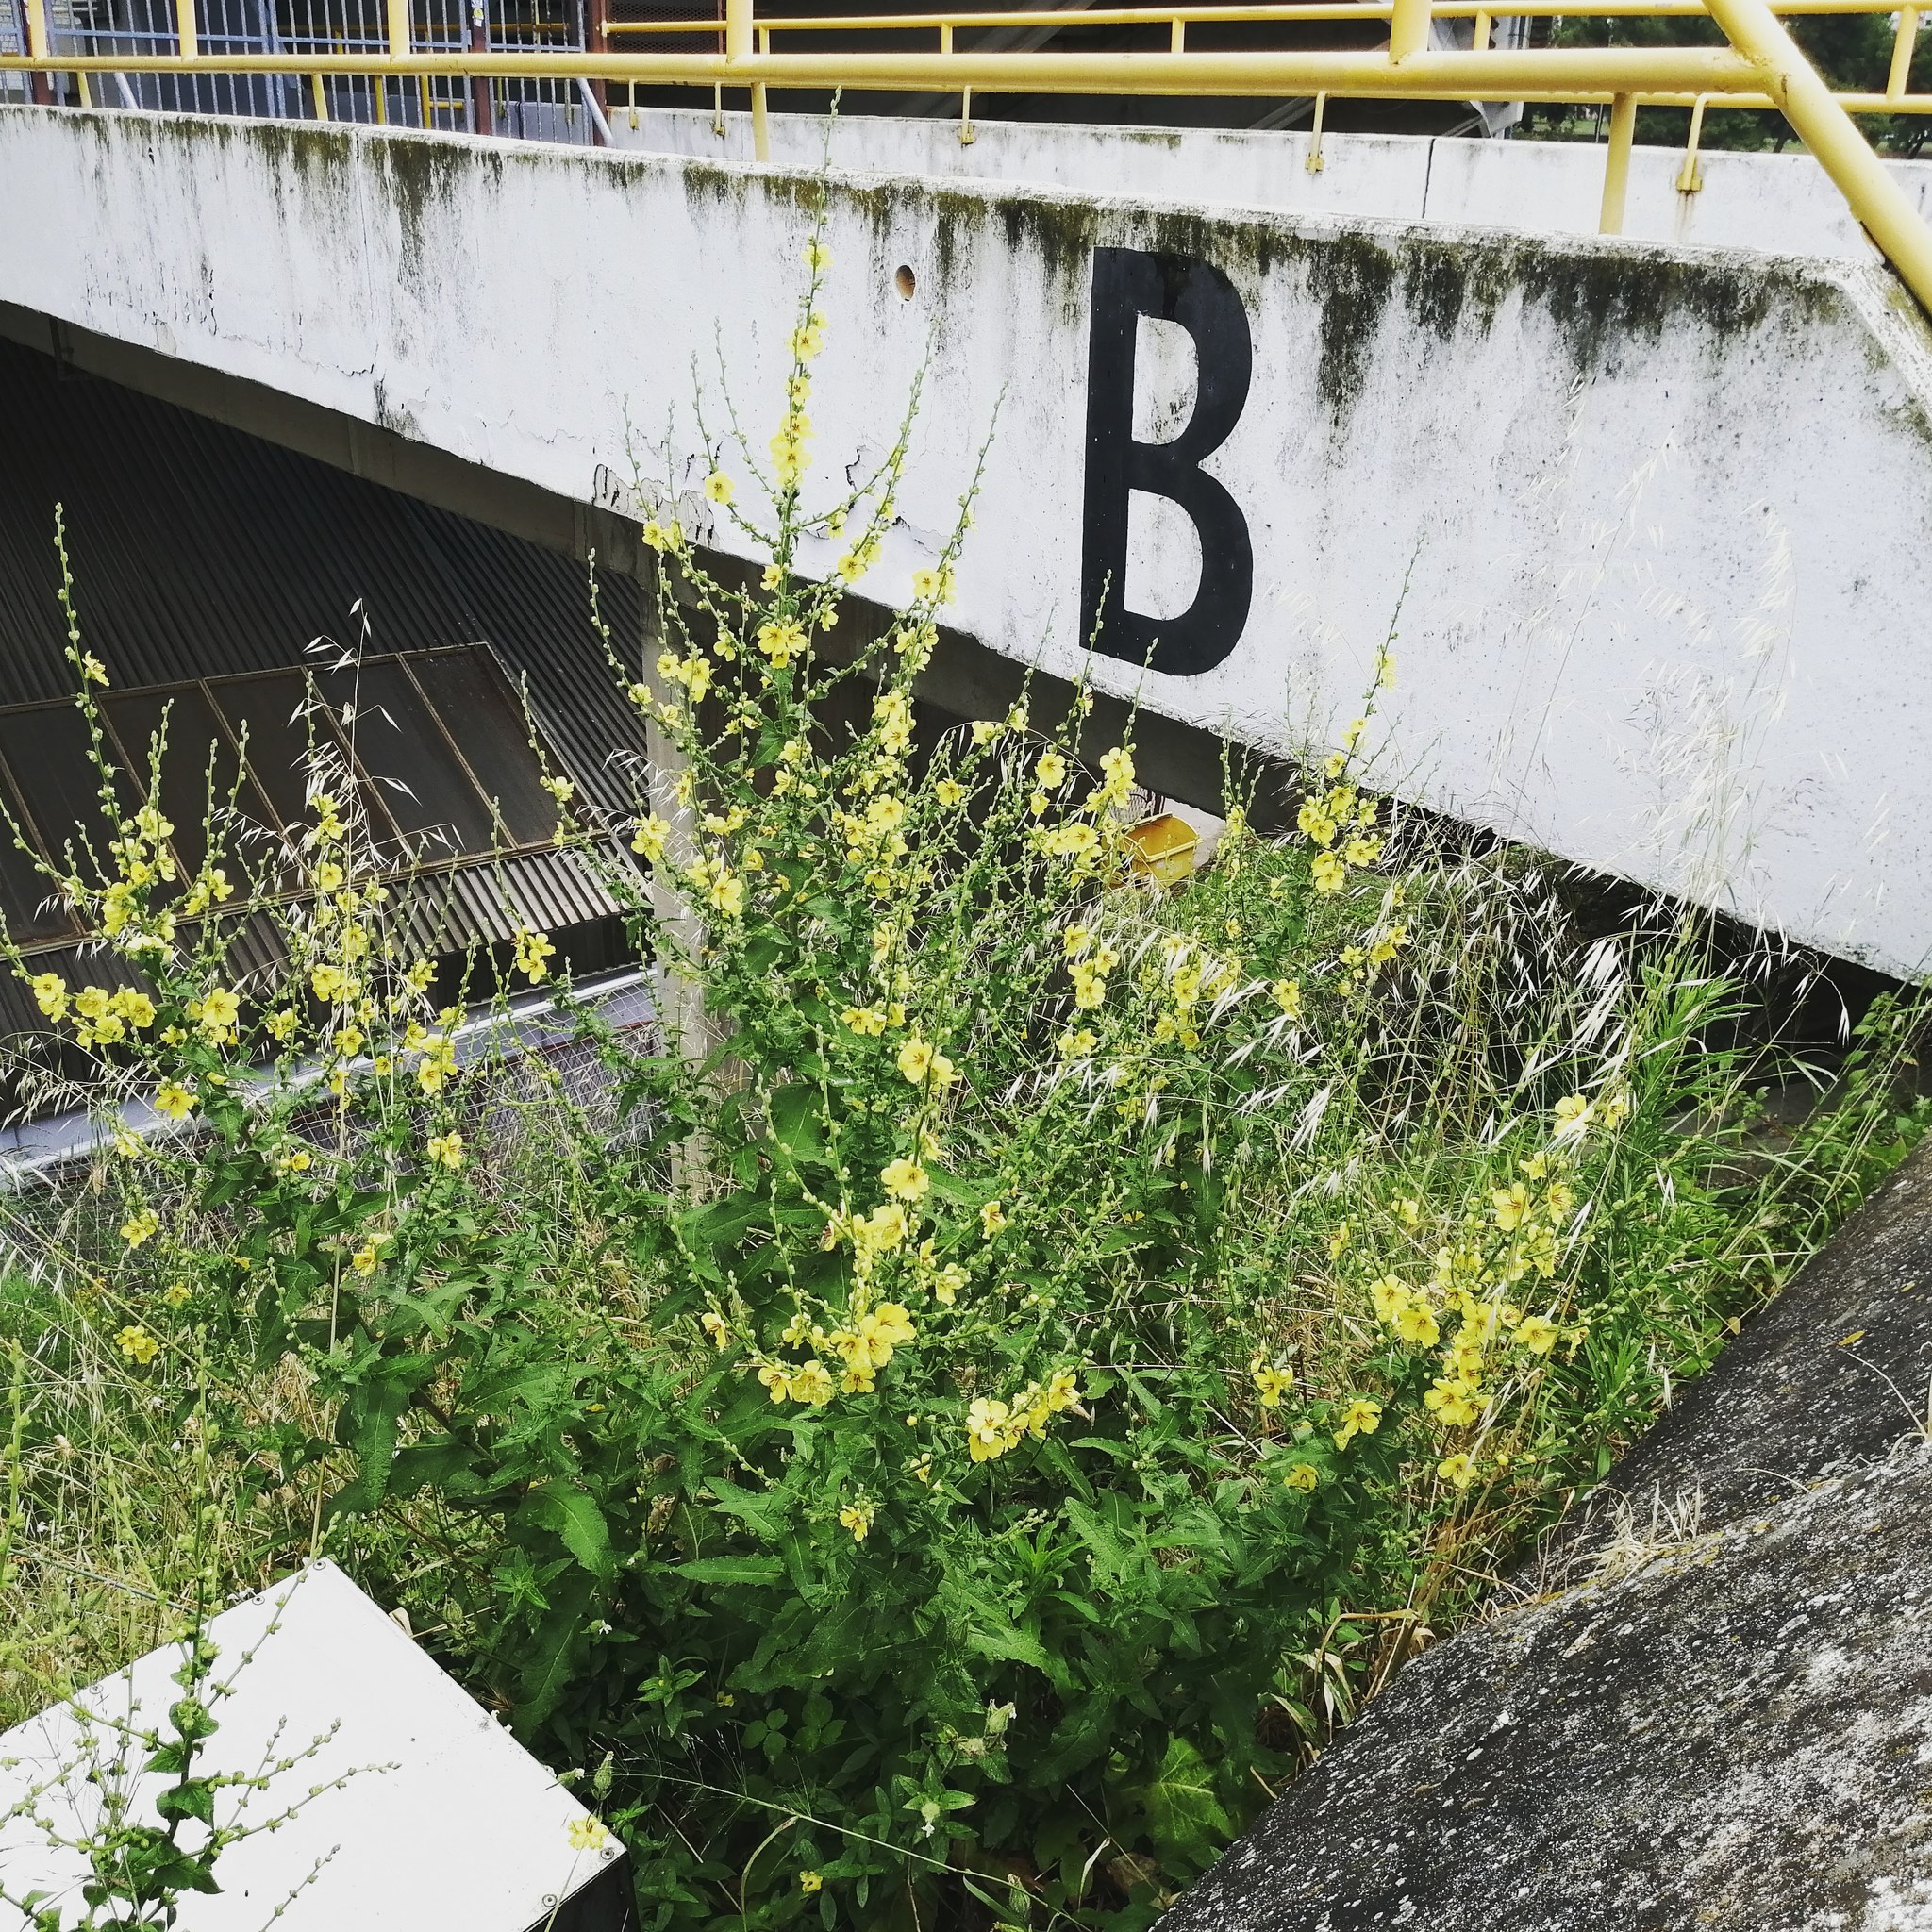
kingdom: Plantae
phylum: Tracheophyta
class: Magnoliopsida
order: Lamiales
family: Scrophulariaceae
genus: Verbascum
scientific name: Verbascum sinuatum
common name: Wavyleaf mullein
